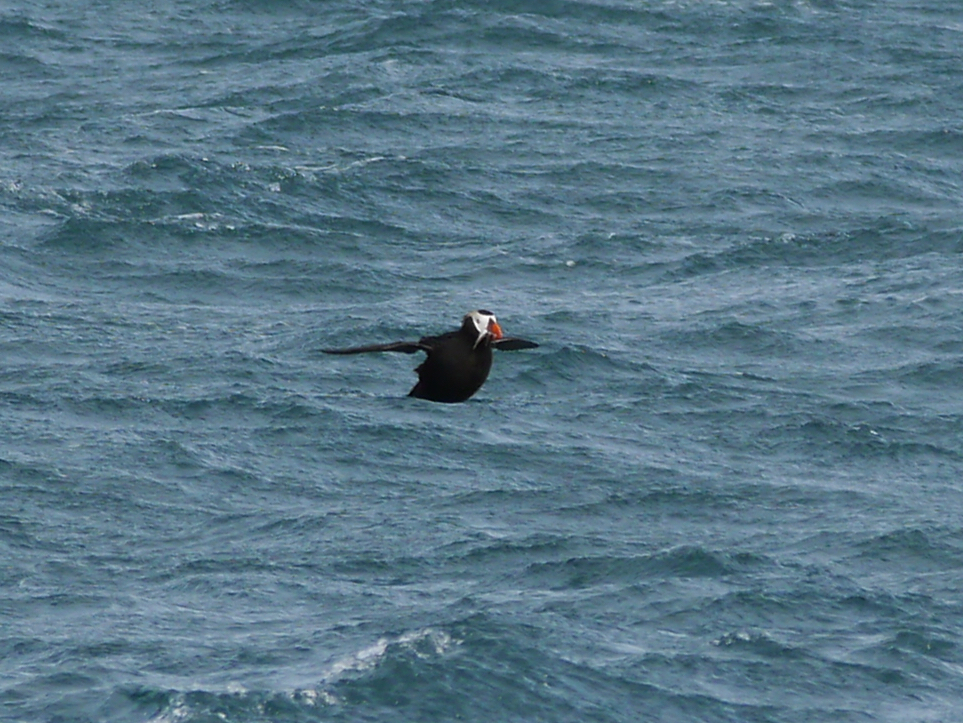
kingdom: Animalia
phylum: Chordata
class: Aves
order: Charadriiformes
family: Alcidae
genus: Fratercula
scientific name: Fratercula cirrhata
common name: Tufted puffin
